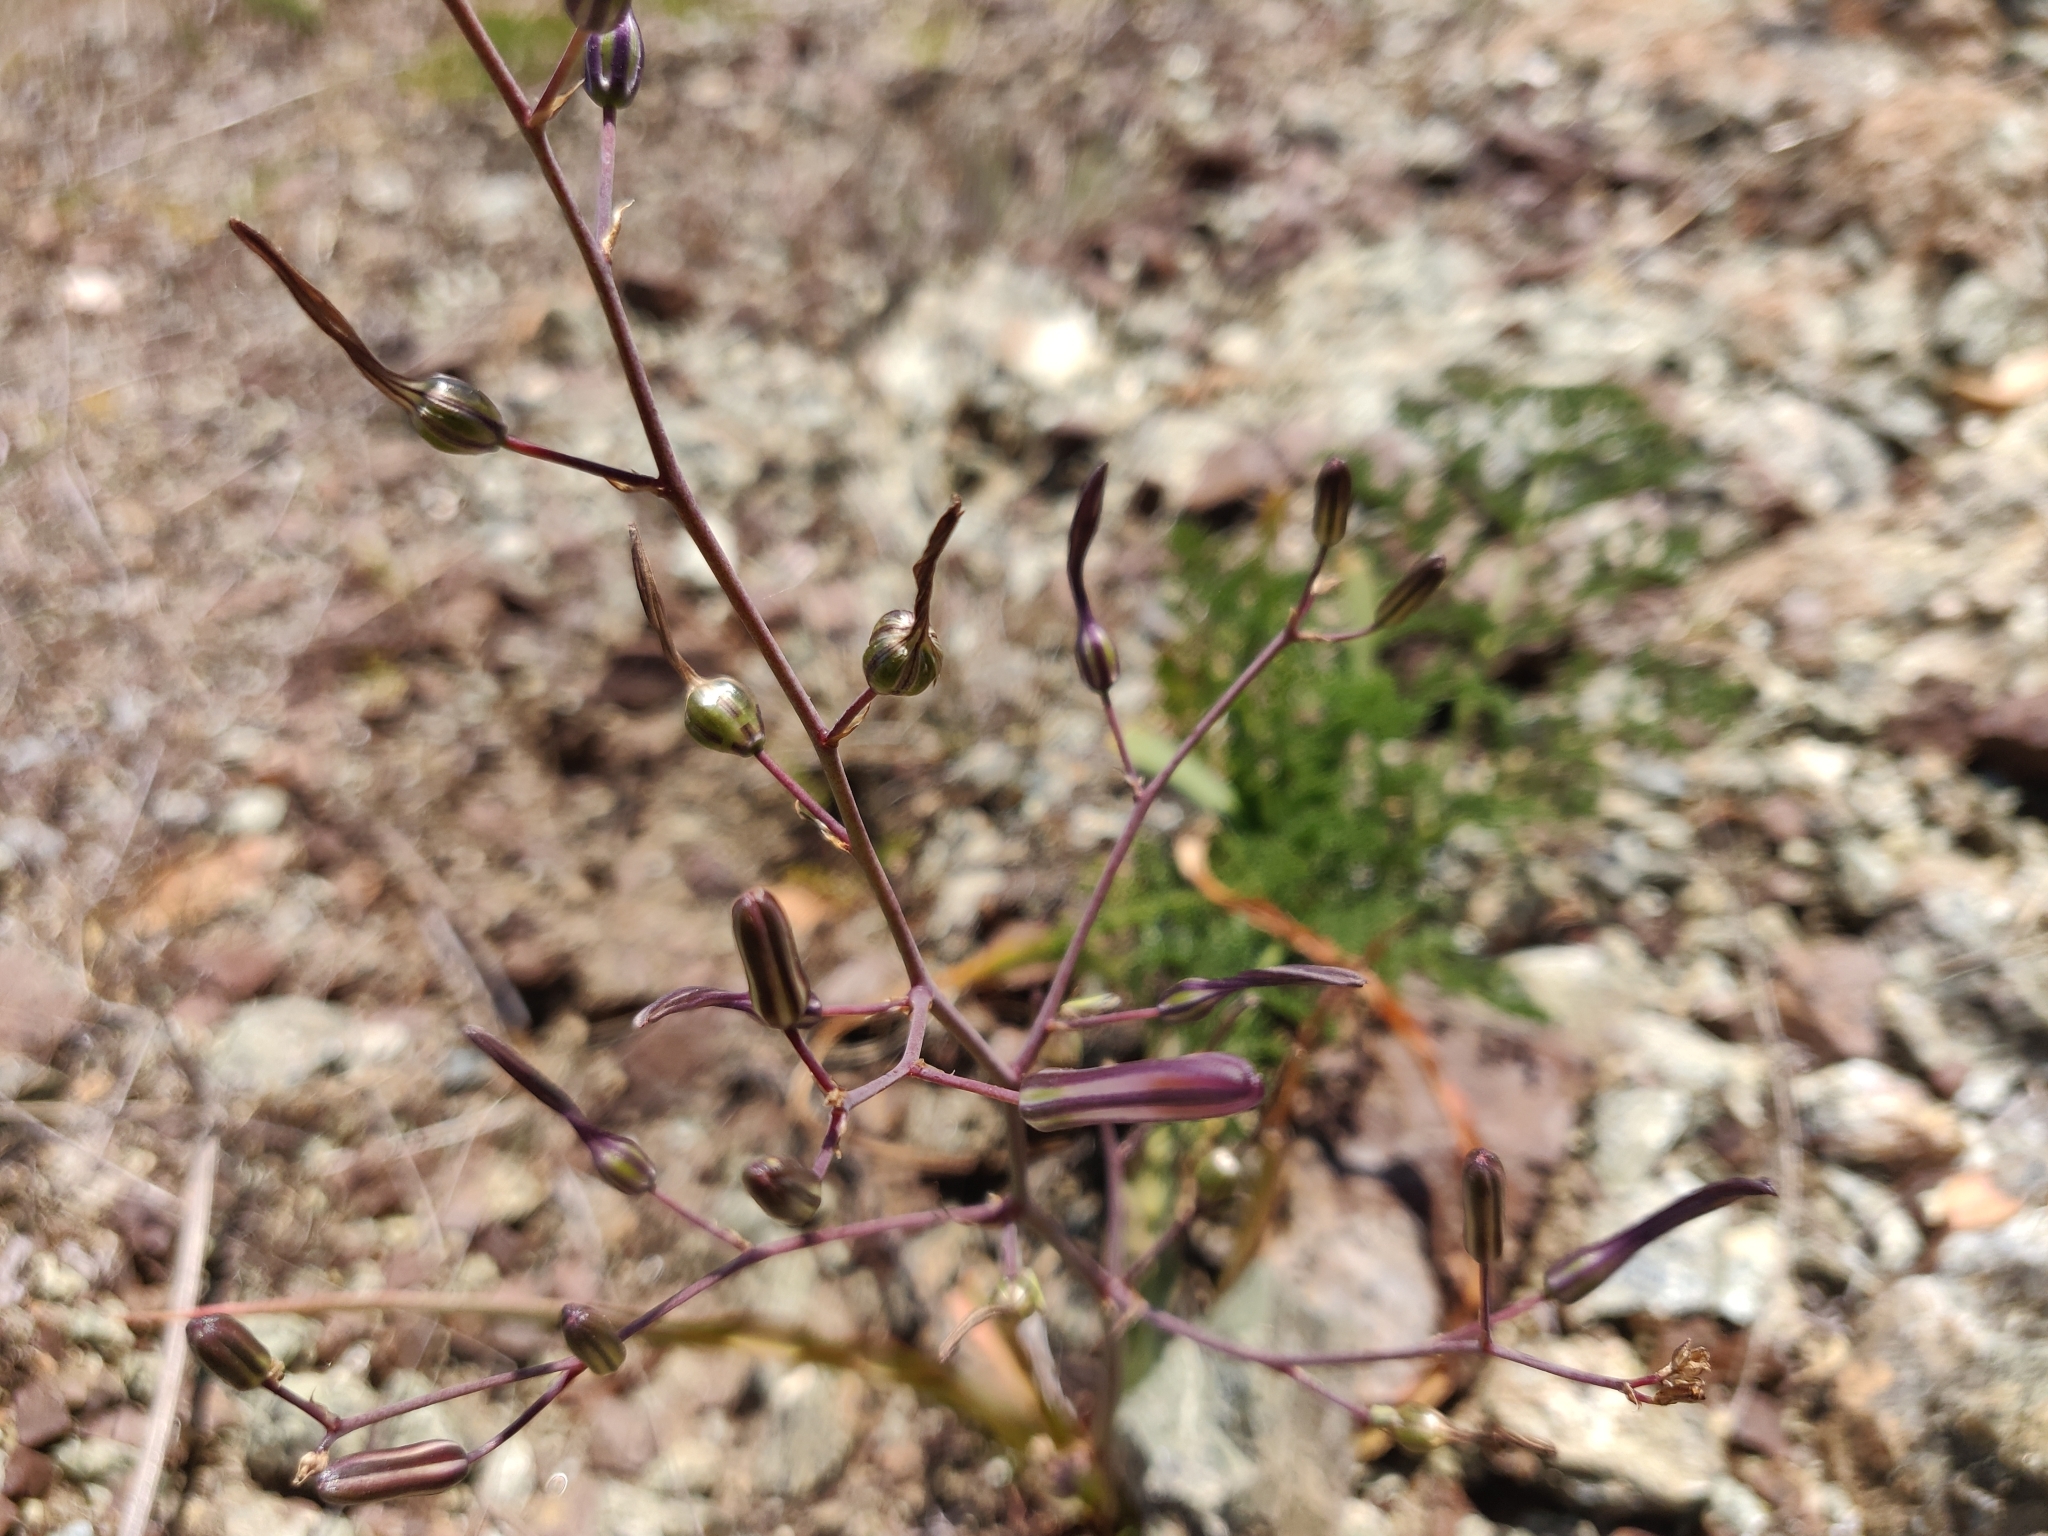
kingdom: Plantae
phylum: Tracheophyta
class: Liliopsida
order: Asparagales
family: Asparagaceae
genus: Chlorogalum
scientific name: Chlorogalum pomeridianum
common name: Amole
